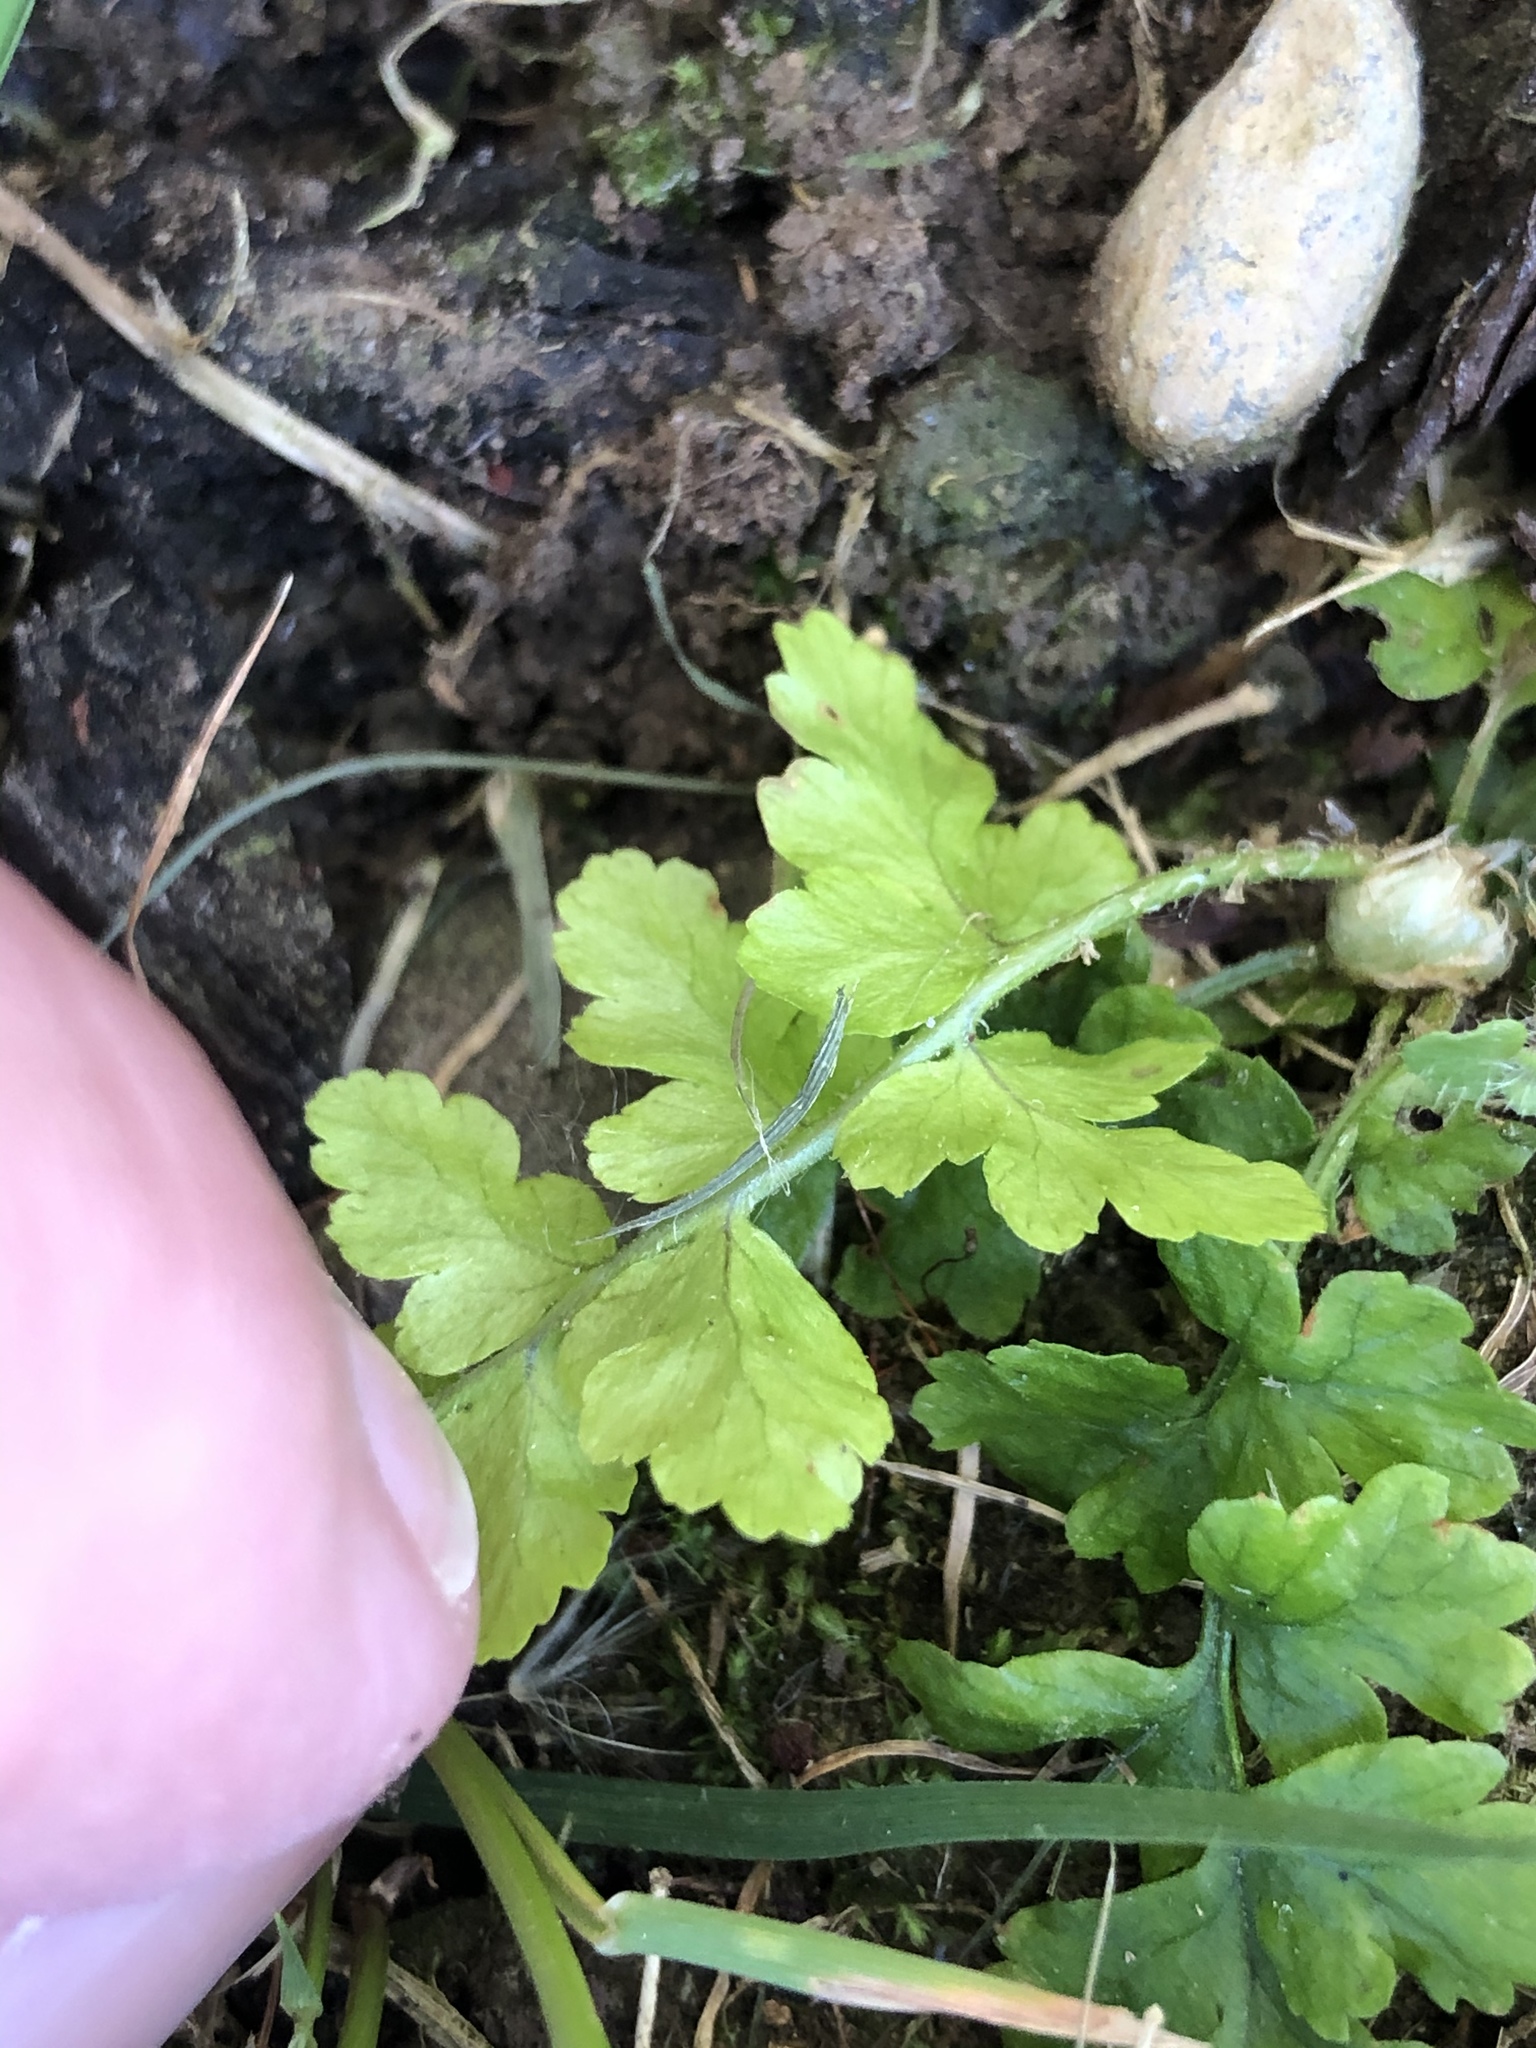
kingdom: Plantae
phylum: Tracheophyta
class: Polypodiopsida
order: Polypodiales
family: Dryopteridaceae
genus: Dryopteris
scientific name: Dryopteris filix-mas
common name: Male fern
